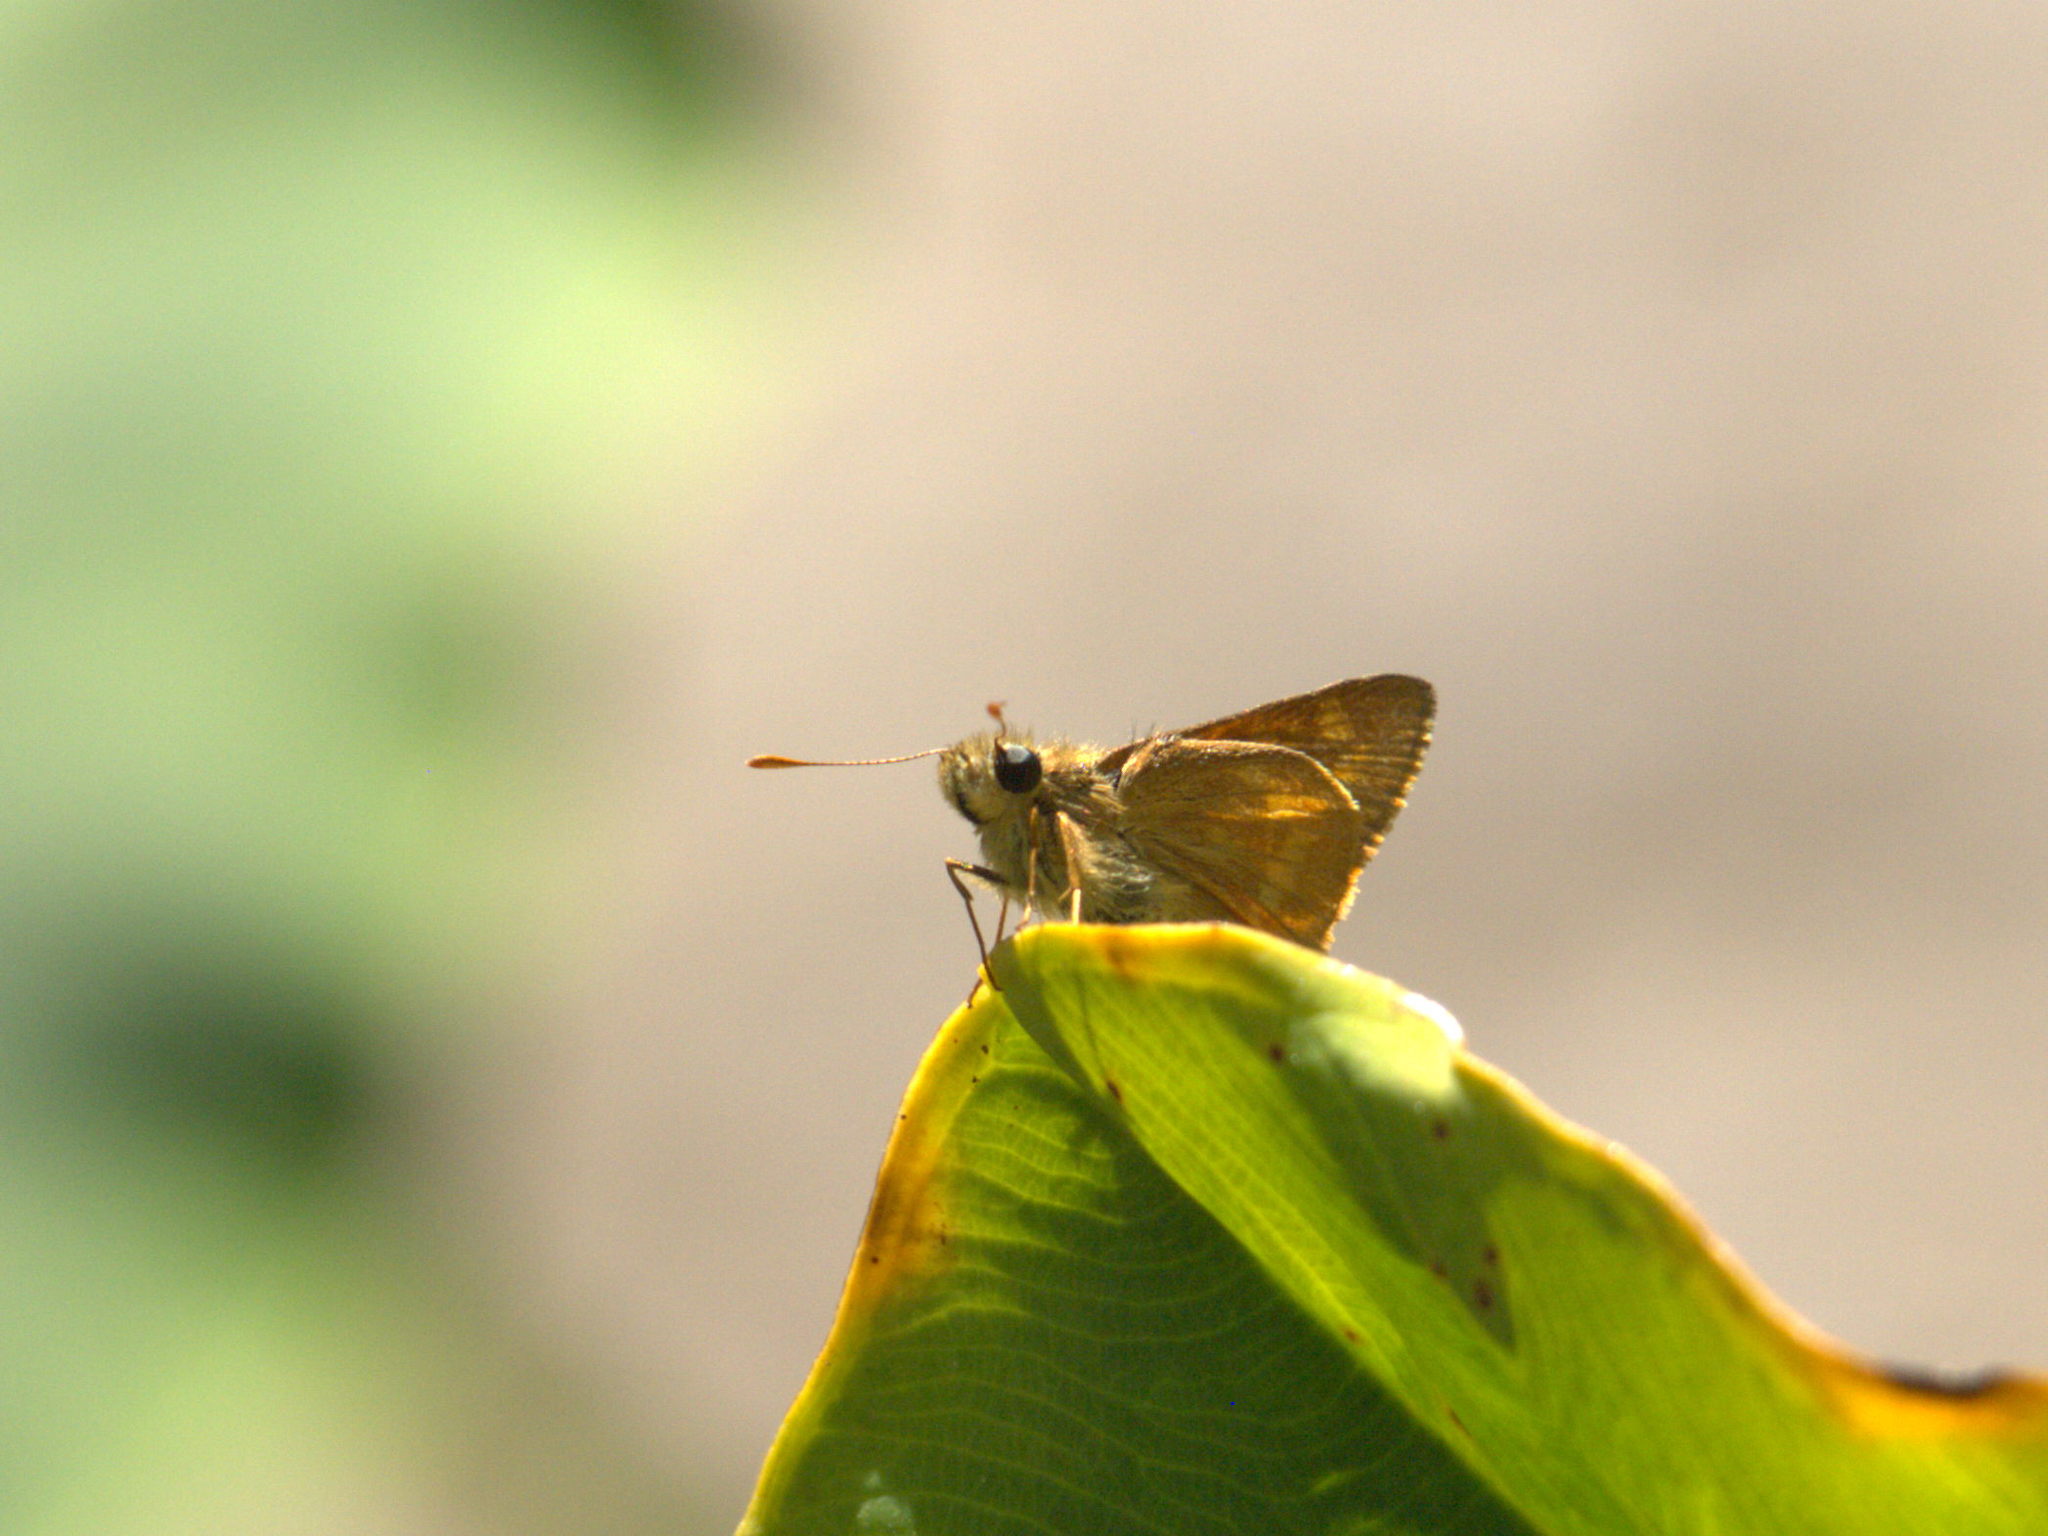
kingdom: Animalia
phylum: Arthropoda
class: Insecta
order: Lepidoptera
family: Hesperiidae
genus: Polites
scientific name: Polites otho
